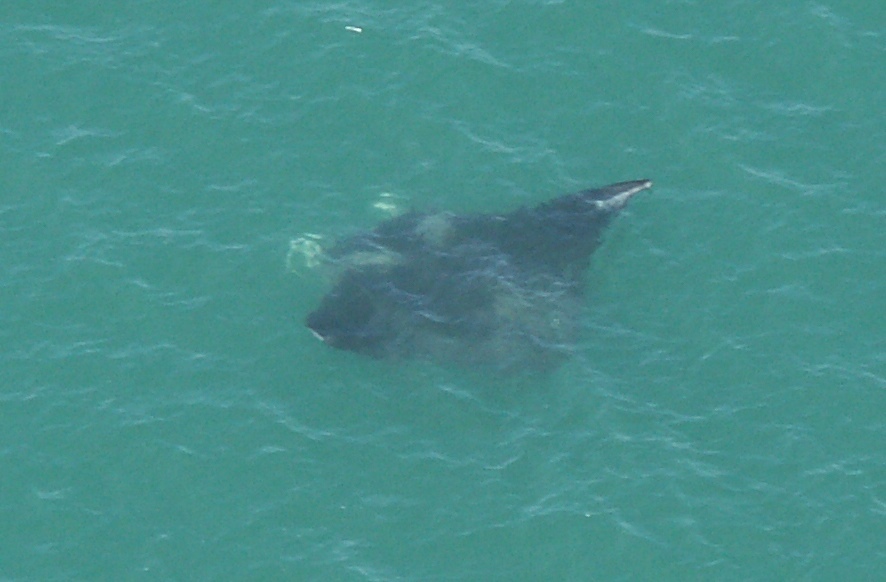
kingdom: Animalia
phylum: Chordata
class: Elasmobranchii
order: Myliobatiformes
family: Myliobatidae
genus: Mobula
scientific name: Mobula birostris
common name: Manta ray
